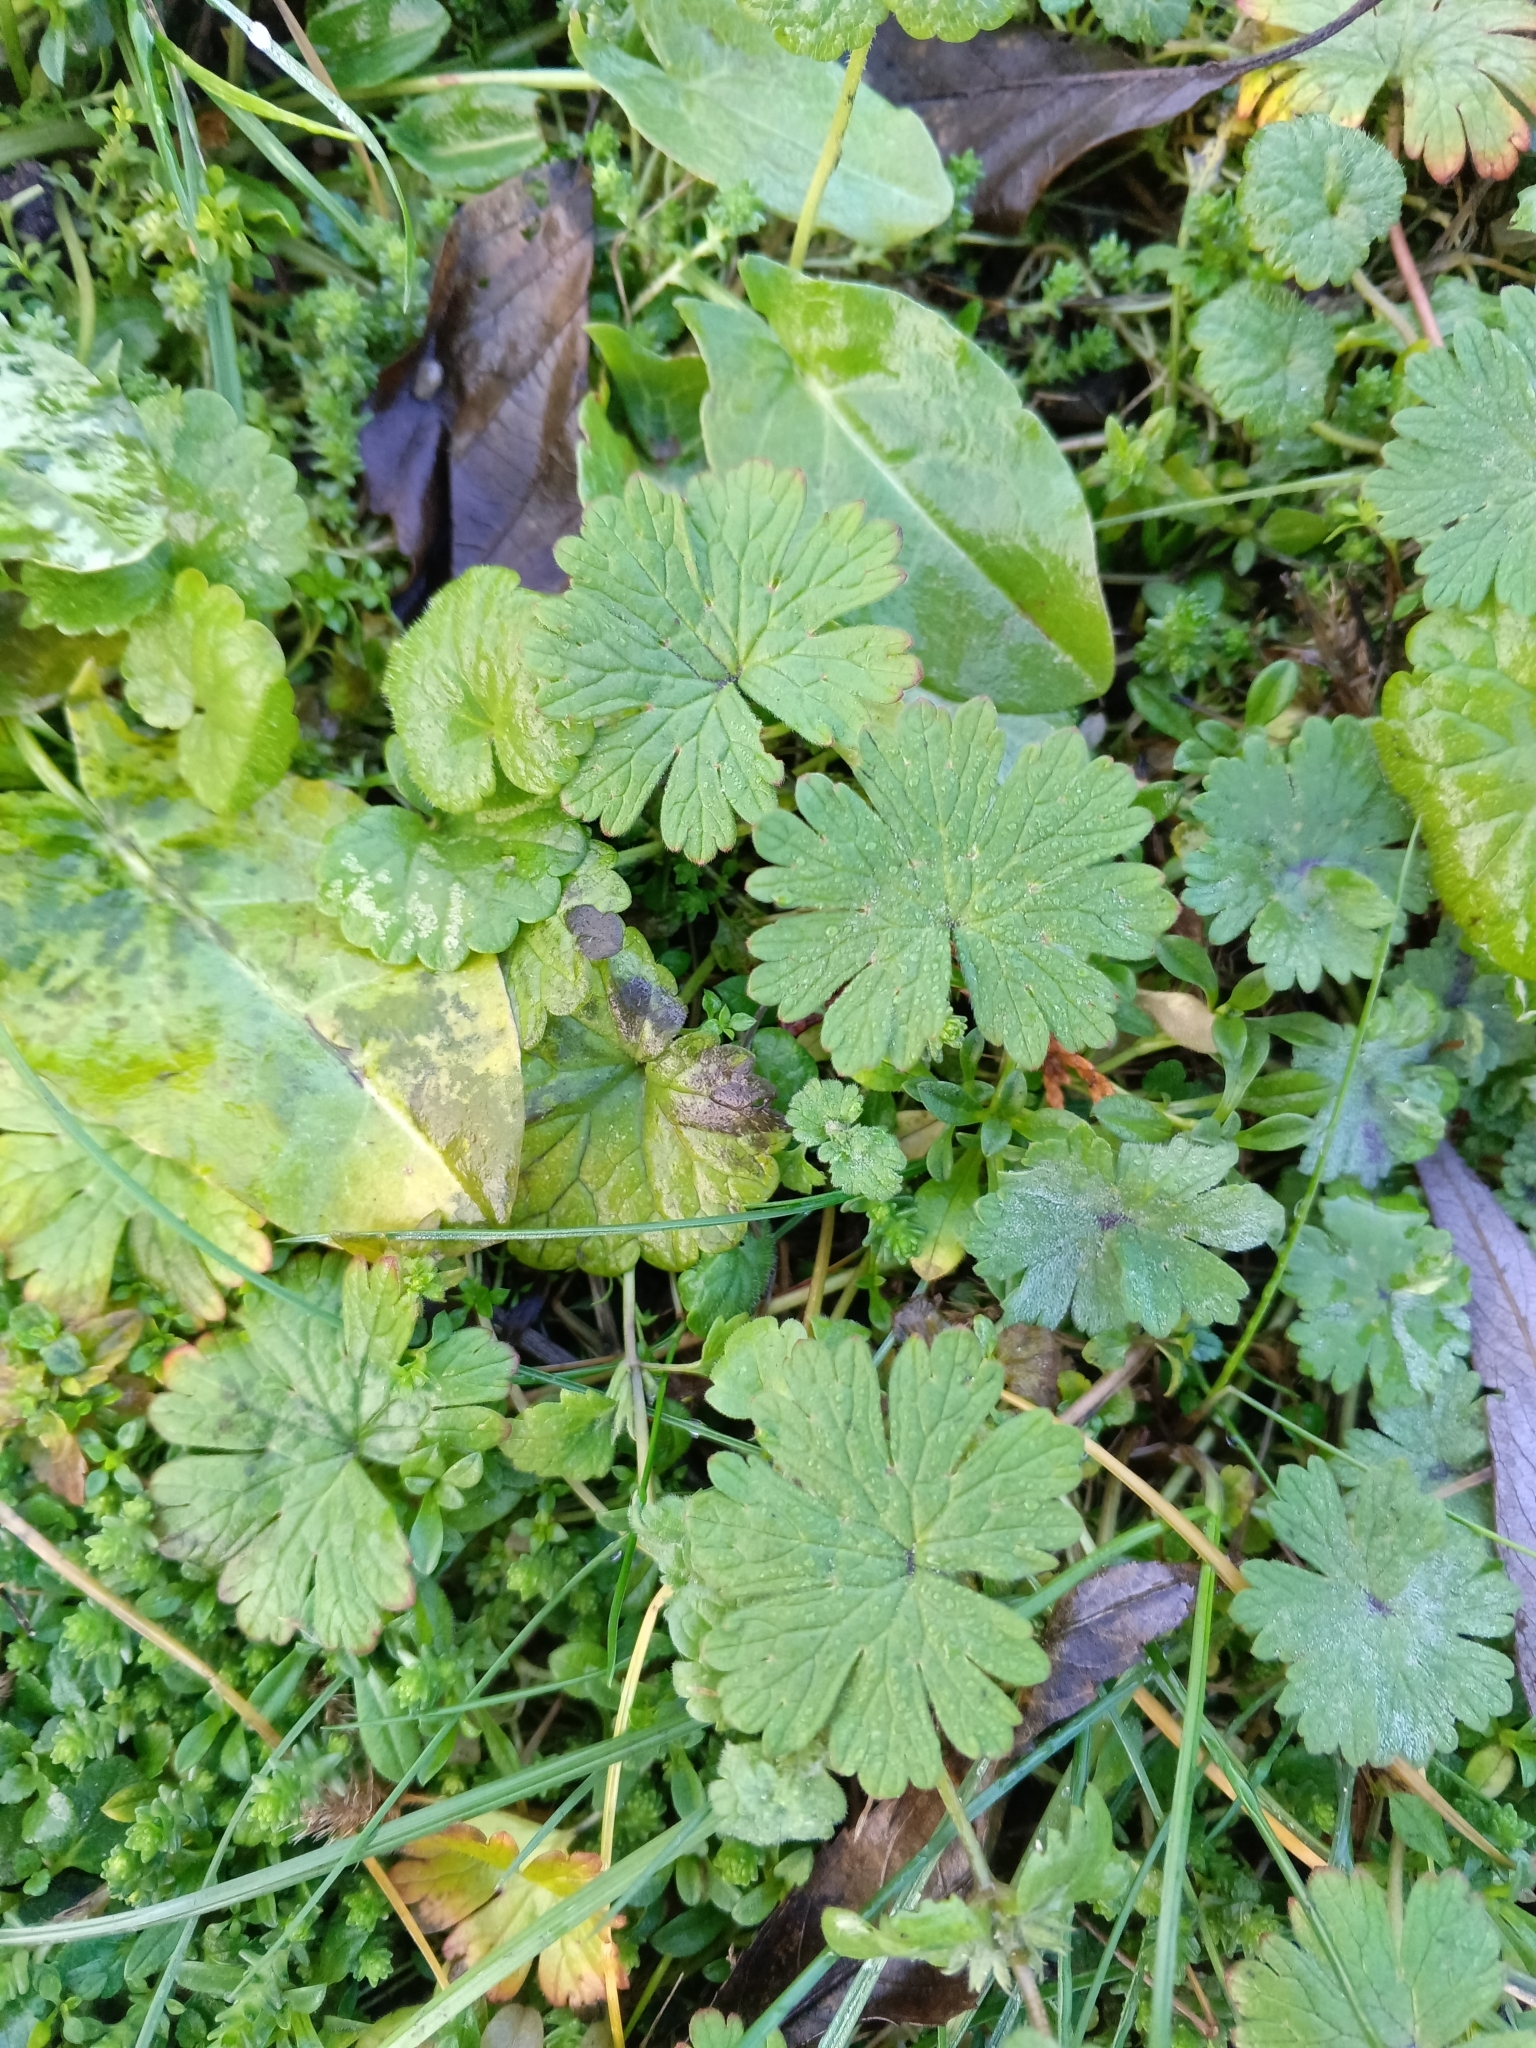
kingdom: Plantae
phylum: Tracheophyta
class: Magnoliopsida
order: Geraniales
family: Geraniaceae
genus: Geranium
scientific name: Geranium pusillum
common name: Small geranium
